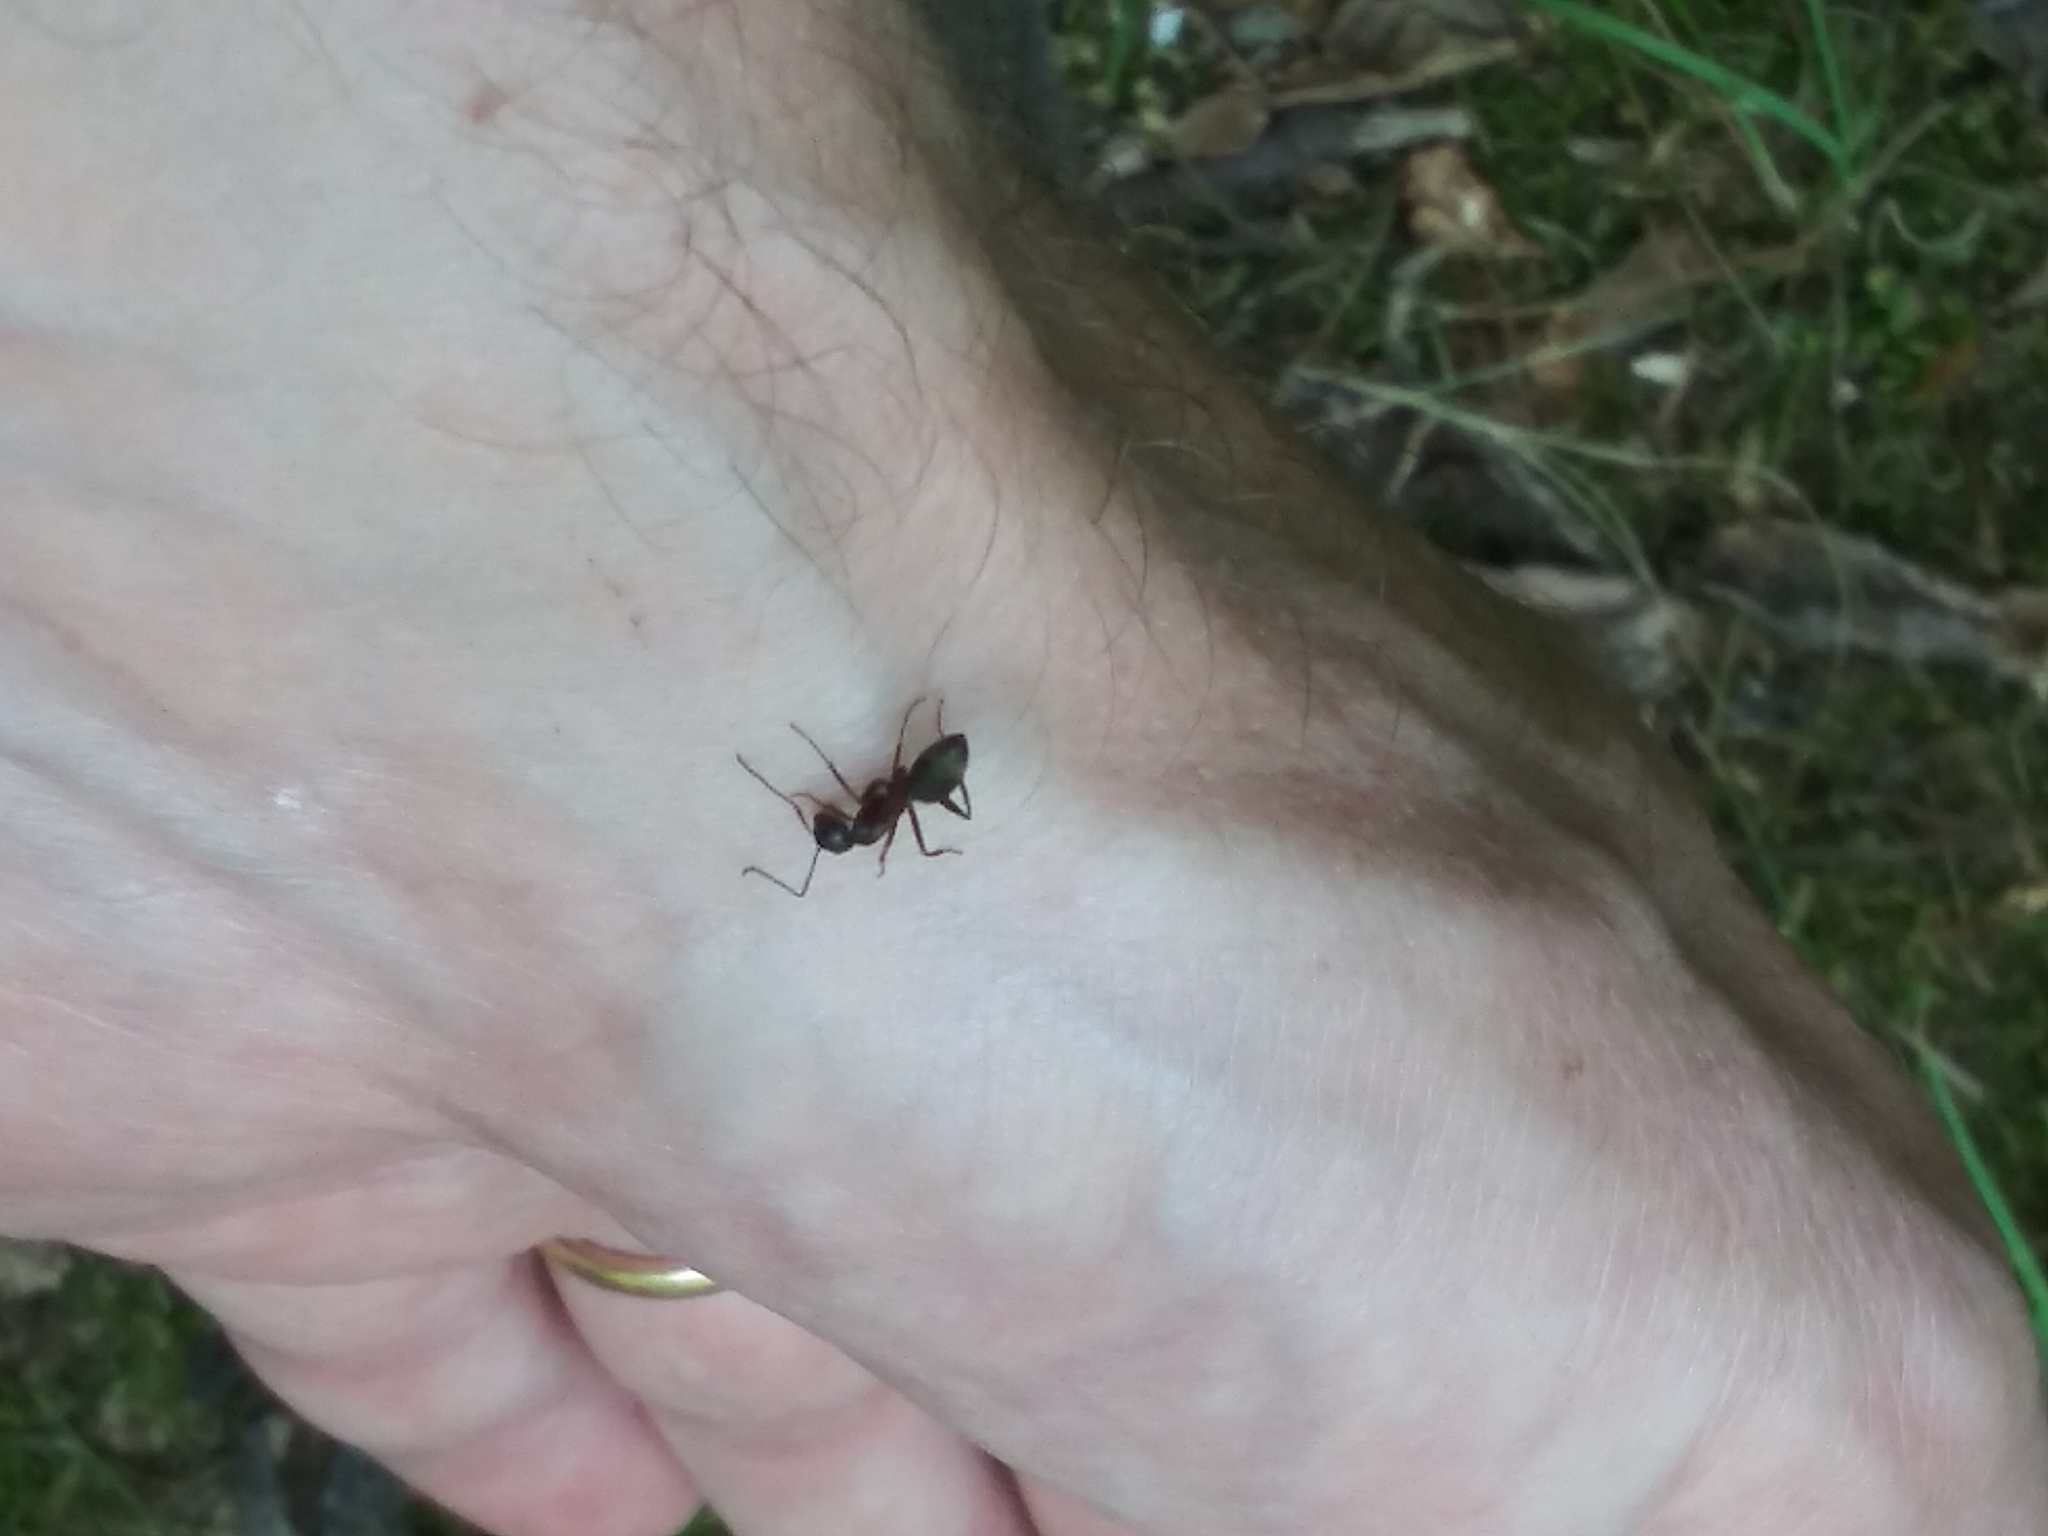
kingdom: Animalia
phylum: Arthropoda
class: Insecta
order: Hymenoptera
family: Formicidae
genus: Camponotus
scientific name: Camponotus chromaiodes
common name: Red carpenter ant
